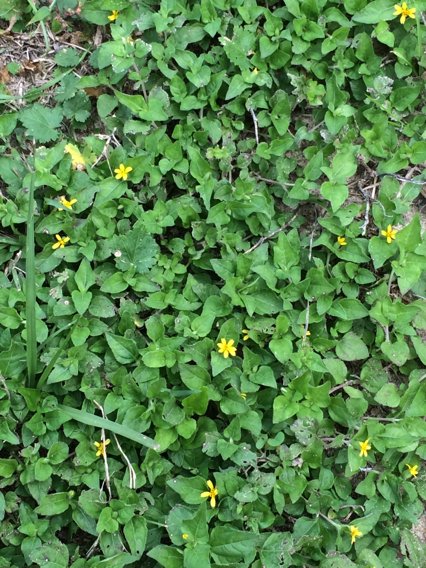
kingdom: Plantae
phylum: Tracheophyta
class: Magnoliopsida
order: Asterales
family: Asteraceae
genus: Calyptocarpus
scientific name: Calyptocarpus vialis
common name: Straggler daisy
